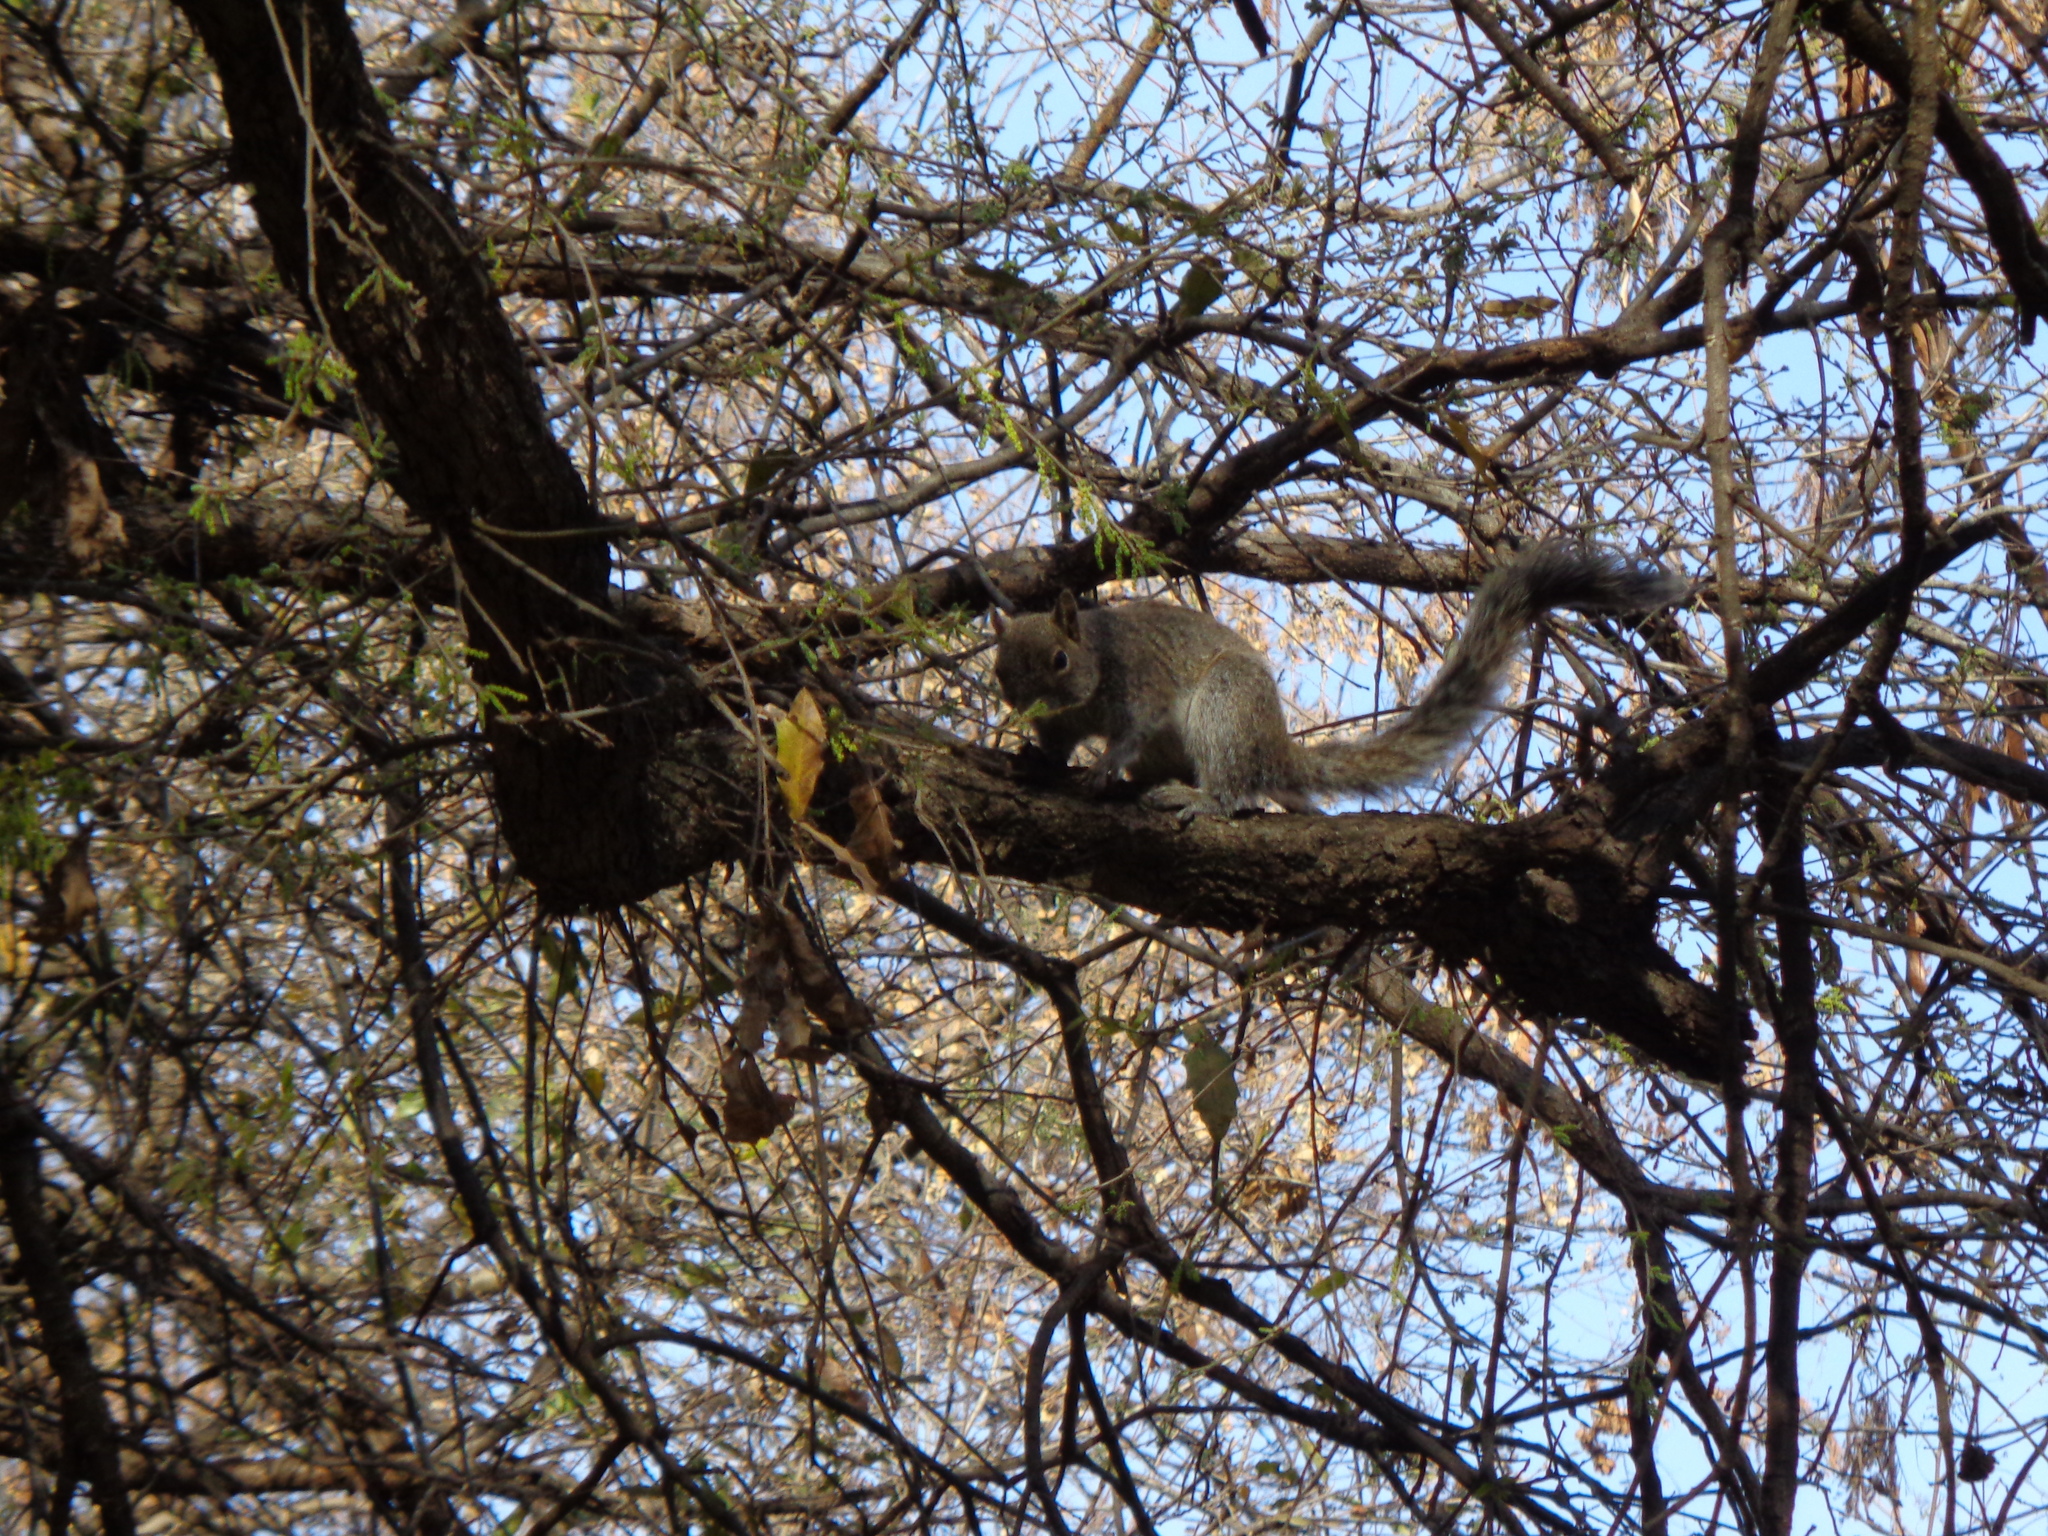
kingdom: Animalia
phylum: Chordata
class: Mammalia
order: Rodentia
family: Sciuridae
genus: Sciurus
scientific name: Sciurus alleni
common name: Allen's squirrel
